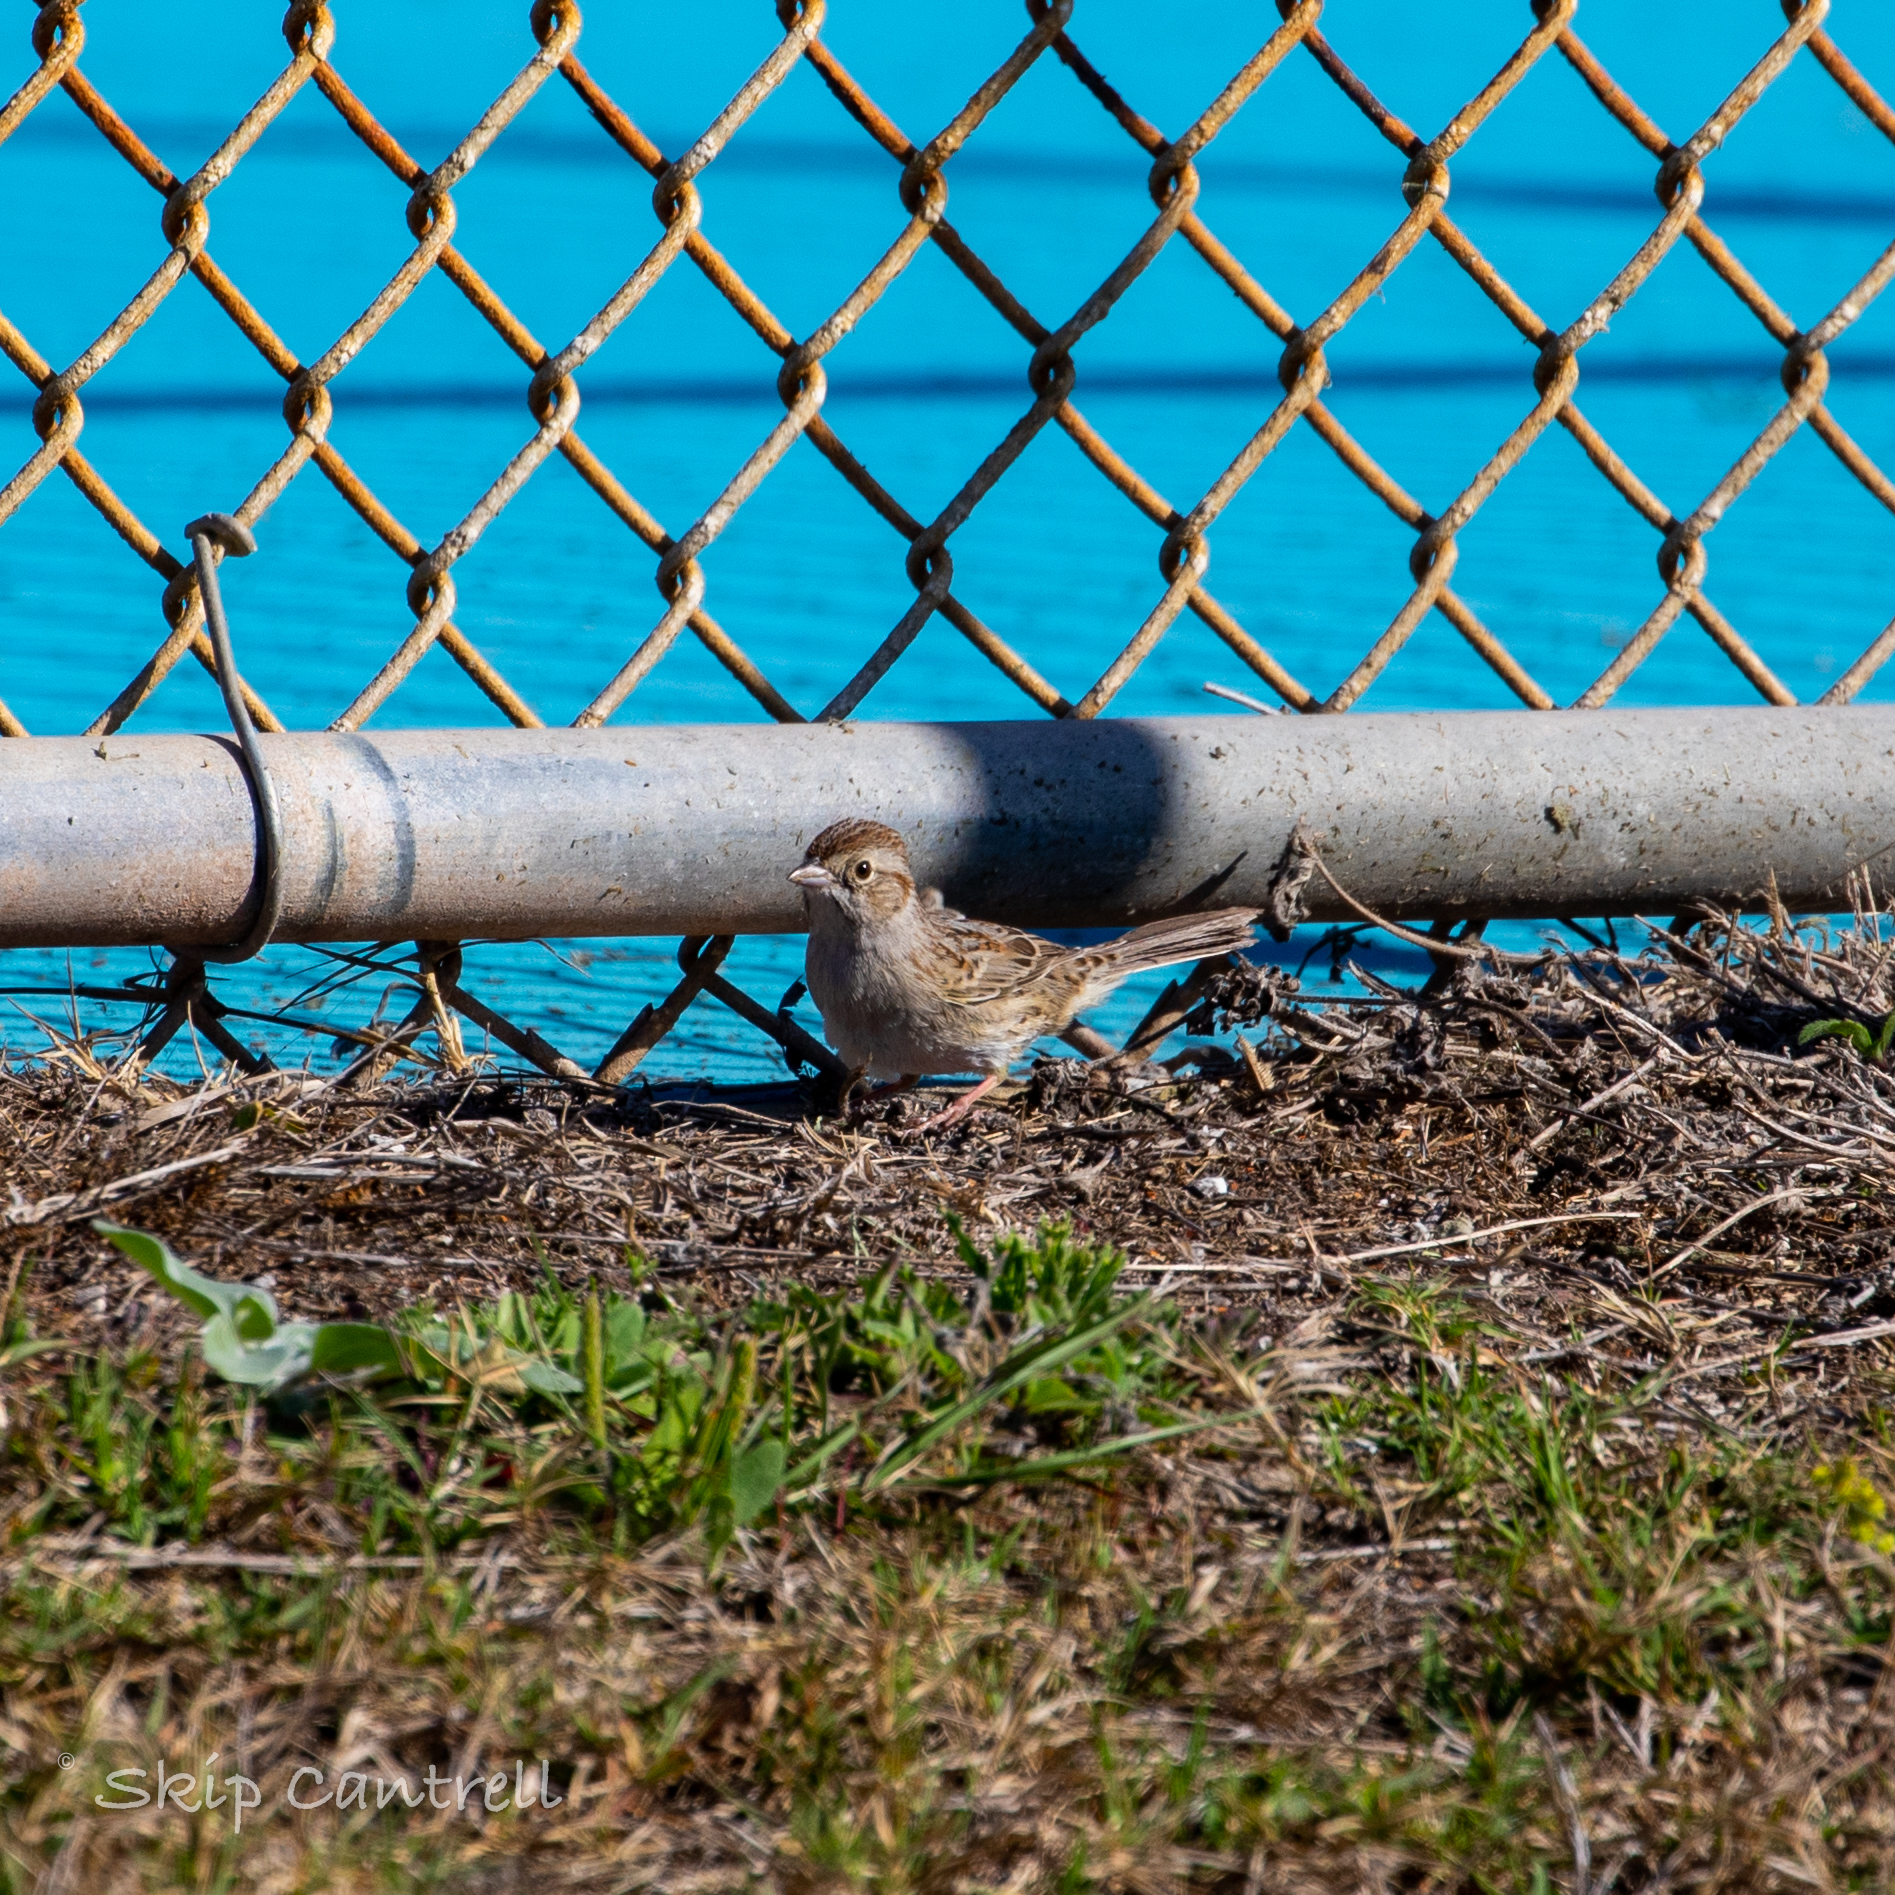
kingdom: Animalia
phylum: Chordata
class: Aves
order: Passeriformes
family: Passerellidae
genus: Peucaea
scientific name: Peucaea cassinii
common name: Cassin's sparrow
